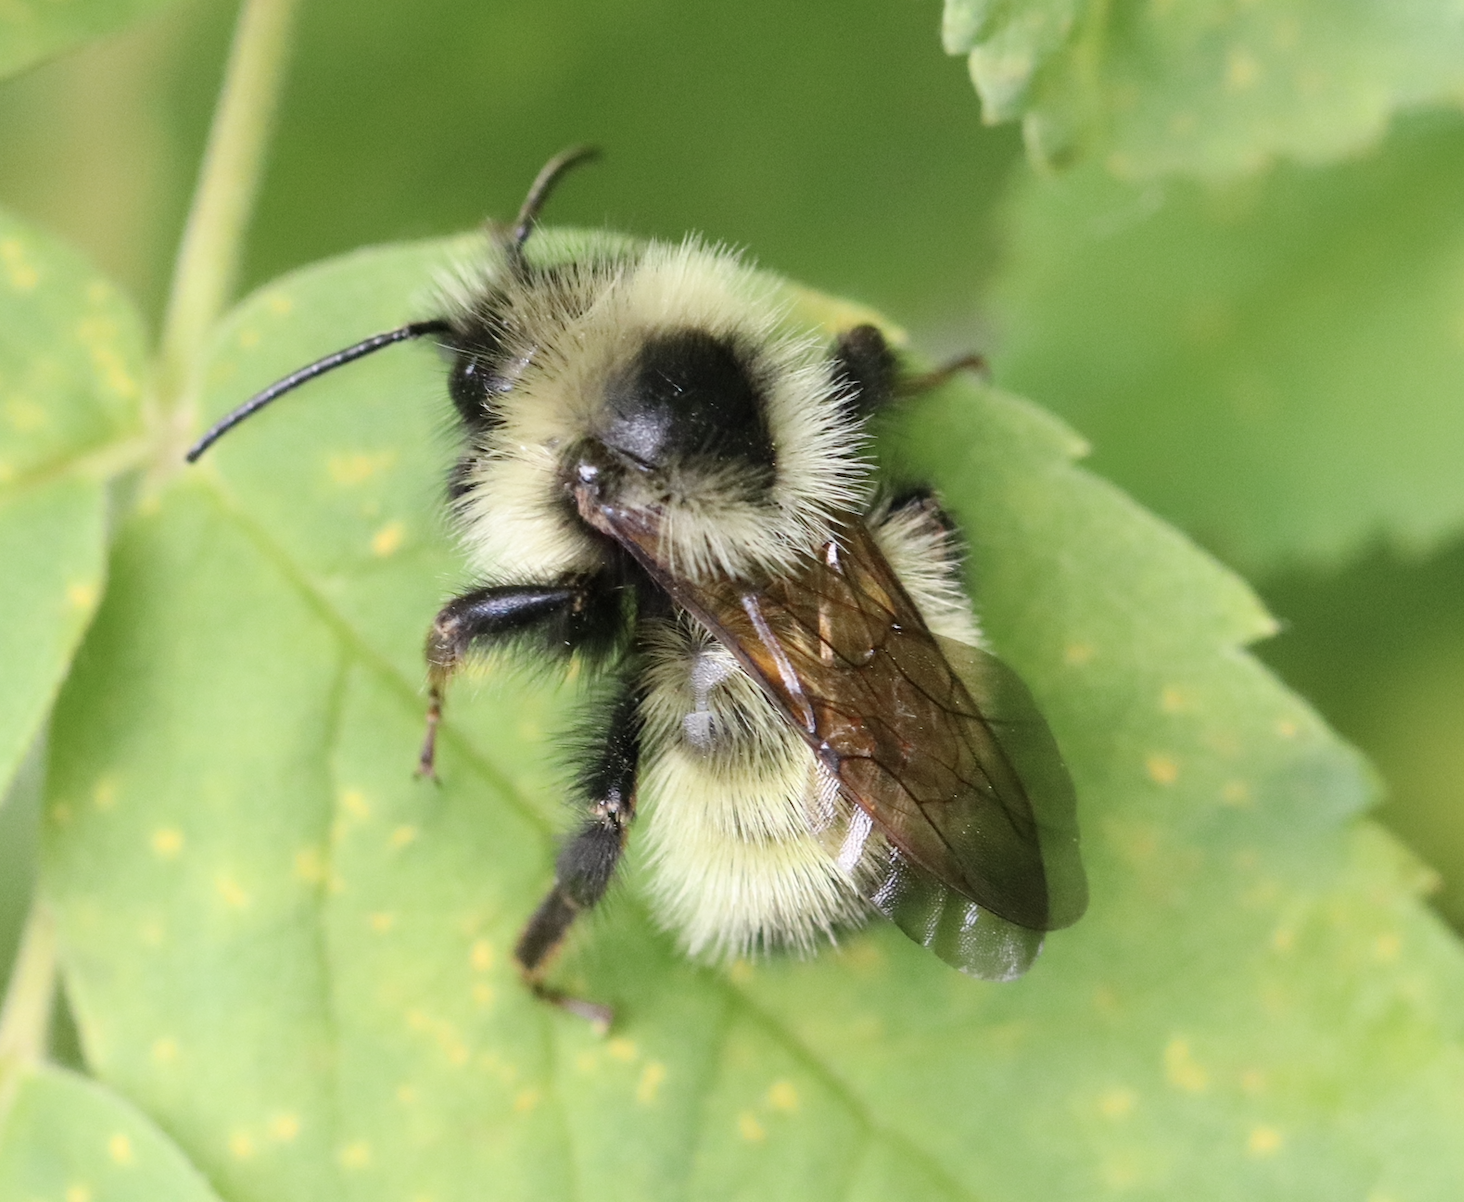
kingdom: Animalia
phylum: Arthropoda
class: Insecta
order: Hymenoptera
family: Apidae
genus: Bombus
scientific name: Bombus insularis
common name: Indiscriminate cuckoo bumble bee
